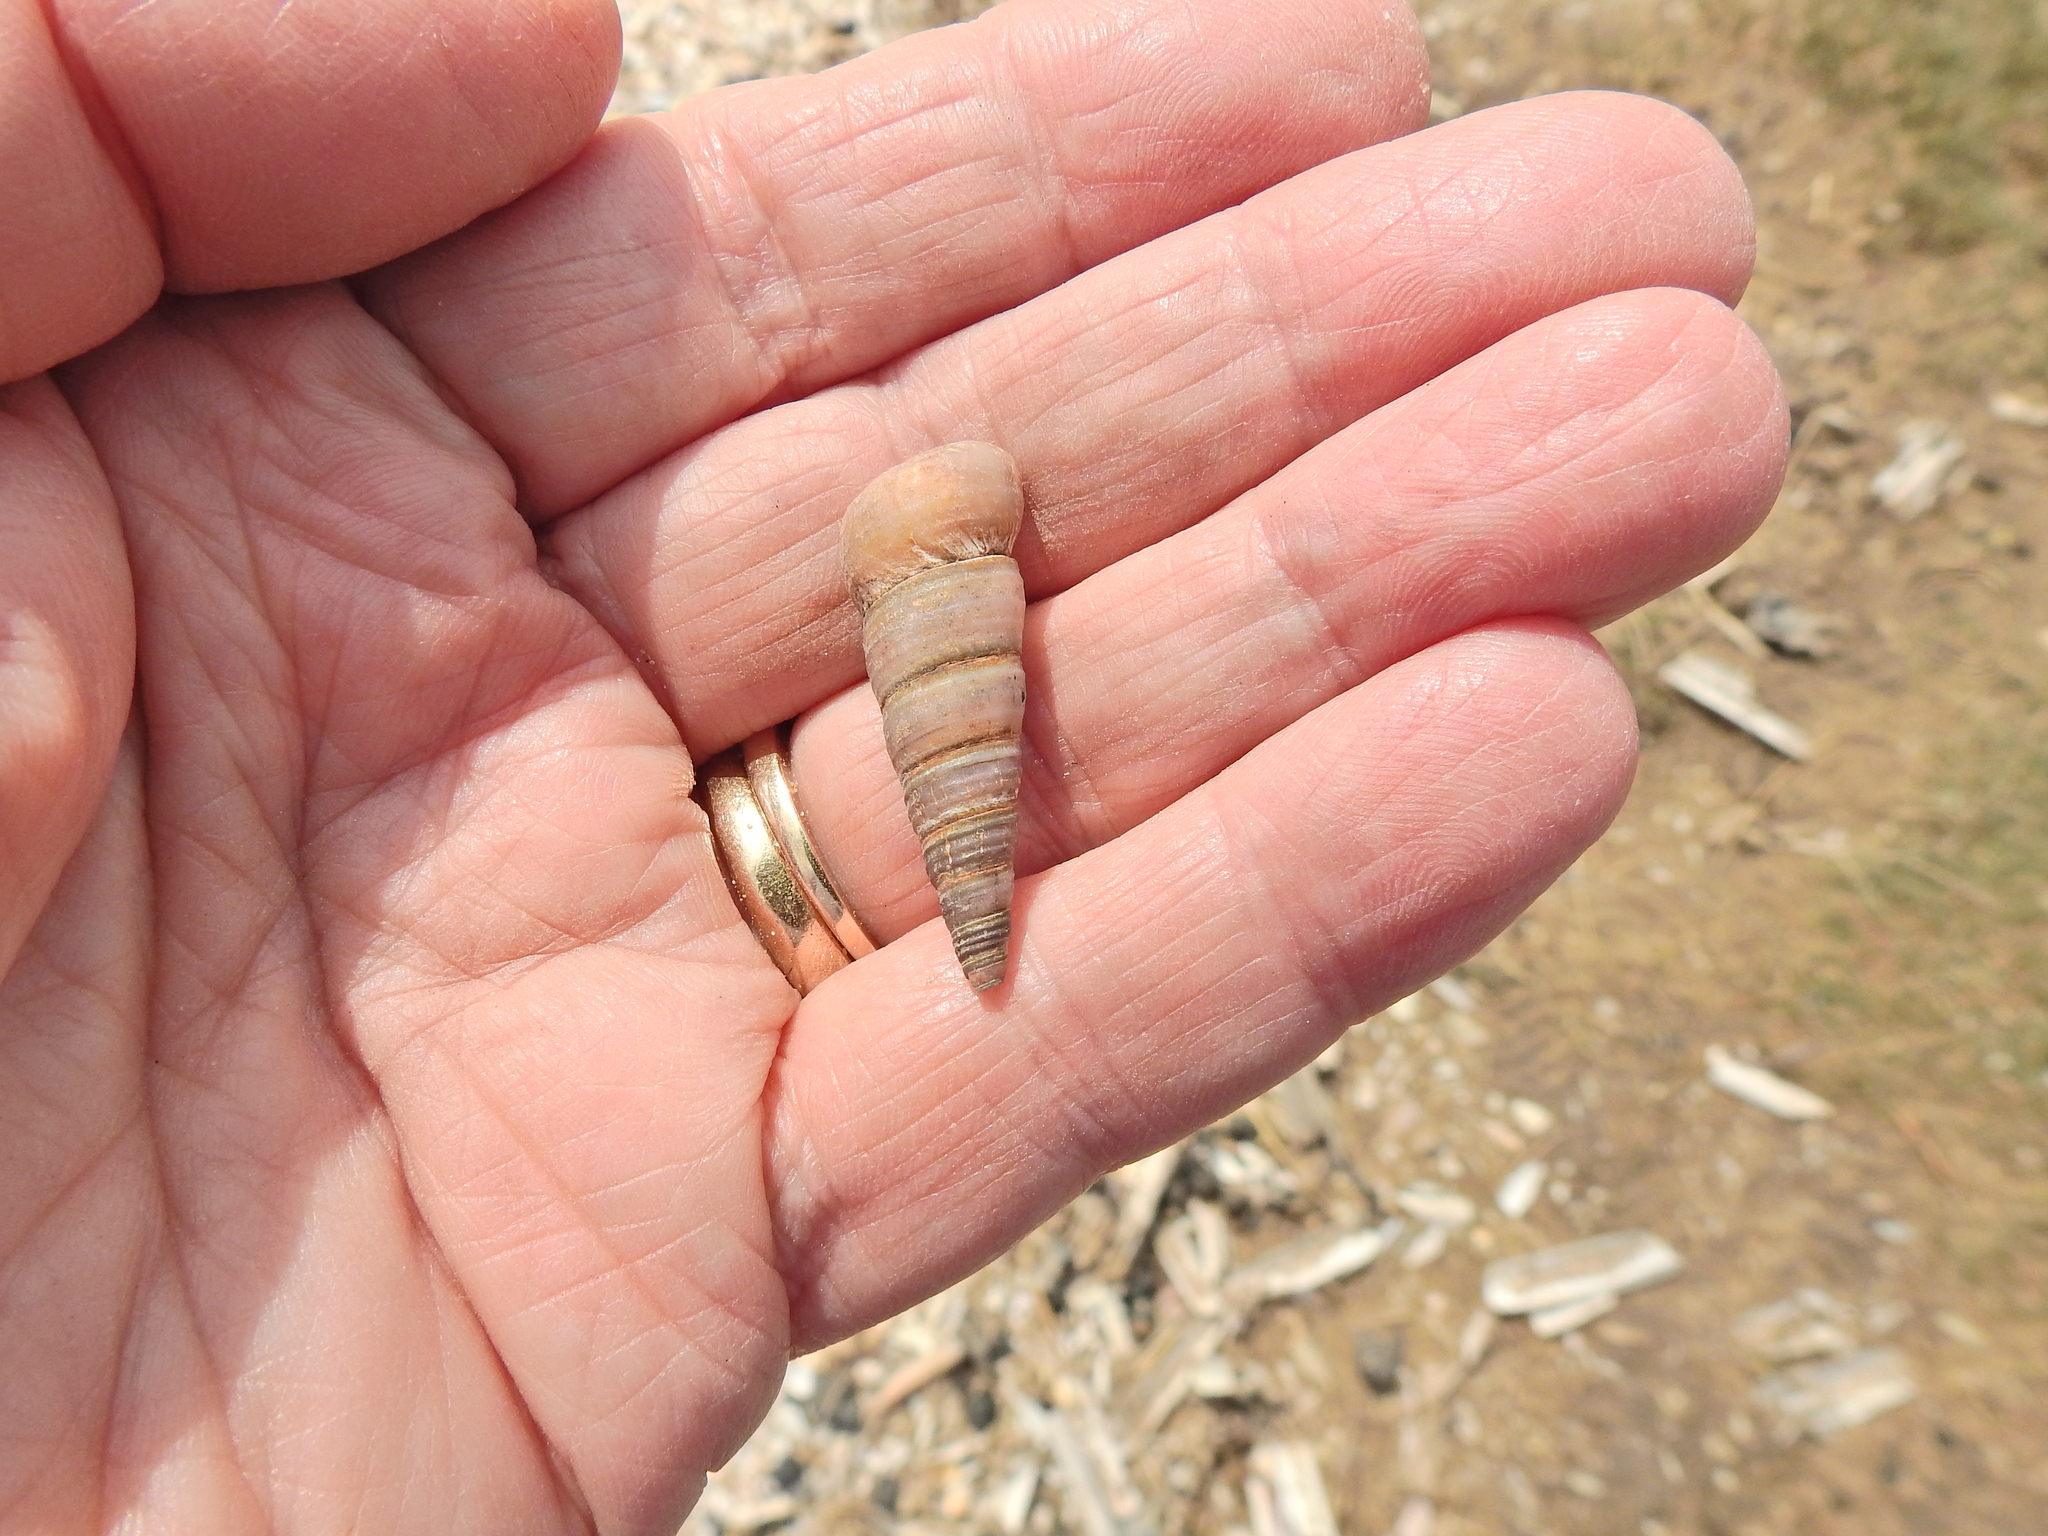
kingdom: Animalia
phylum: Mollusca
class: Gastropoda
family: Turritellidae
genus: Turritellinella
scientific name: Turritellinella tricarinata
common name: Auger shell
